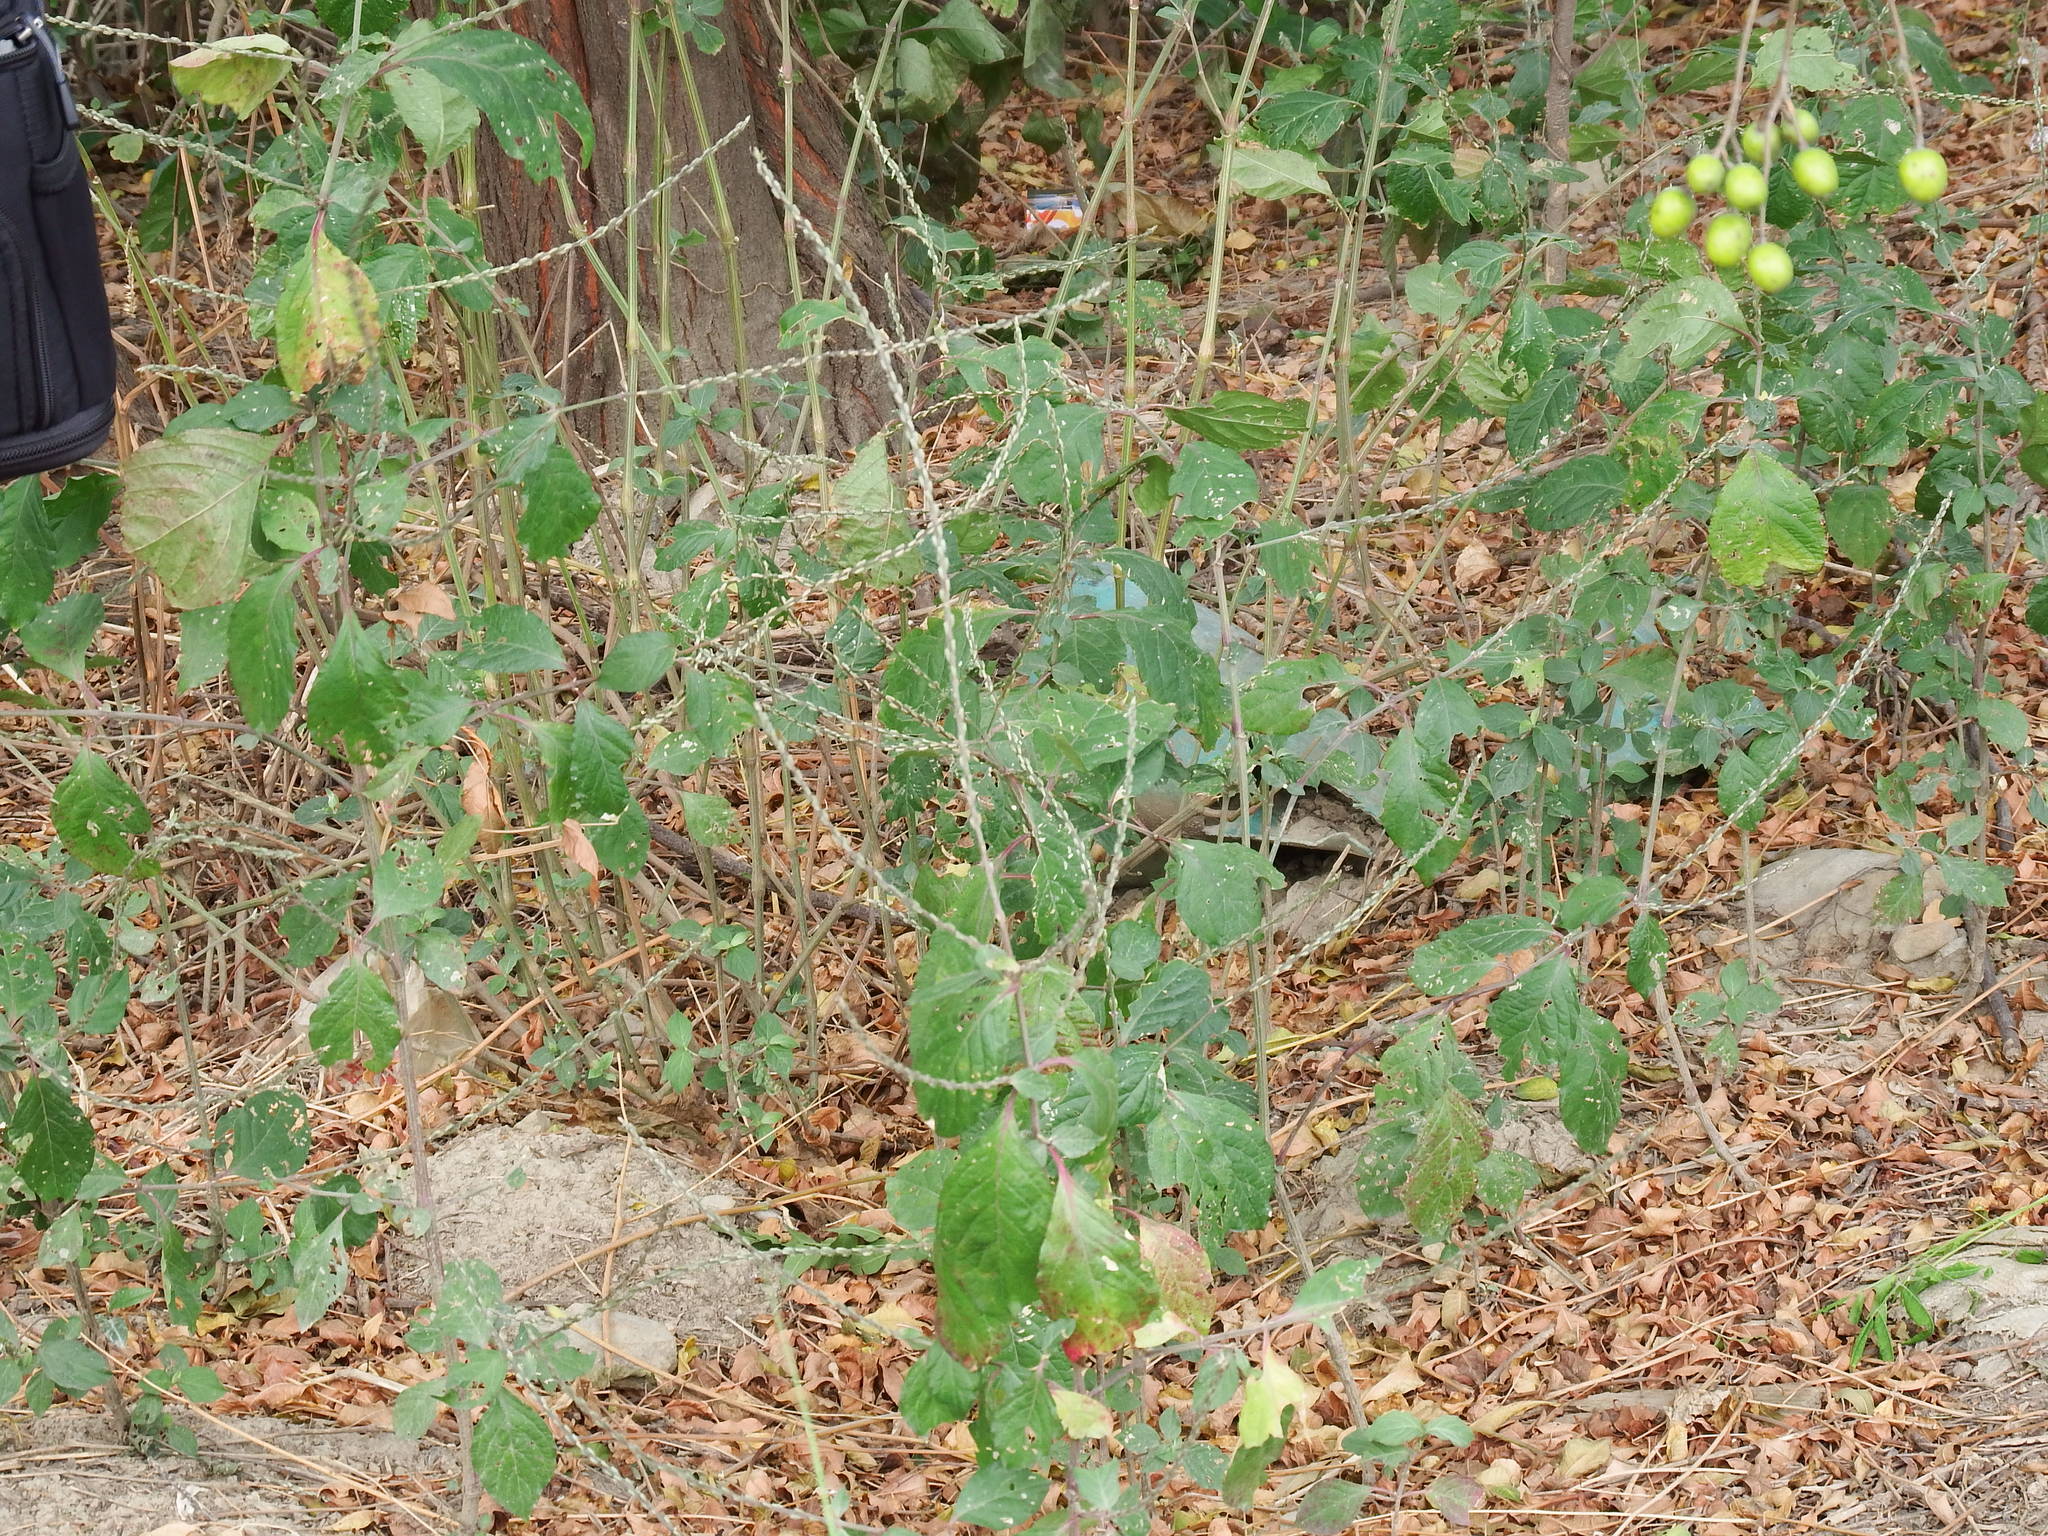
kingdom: Plantae
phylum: Tracheophyta
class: Magnoliopsida
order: Caryophyllales
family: Amaranthaceae
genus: Achyranthes
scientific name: Achyranthes aspera
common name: Devil's horsewhip
